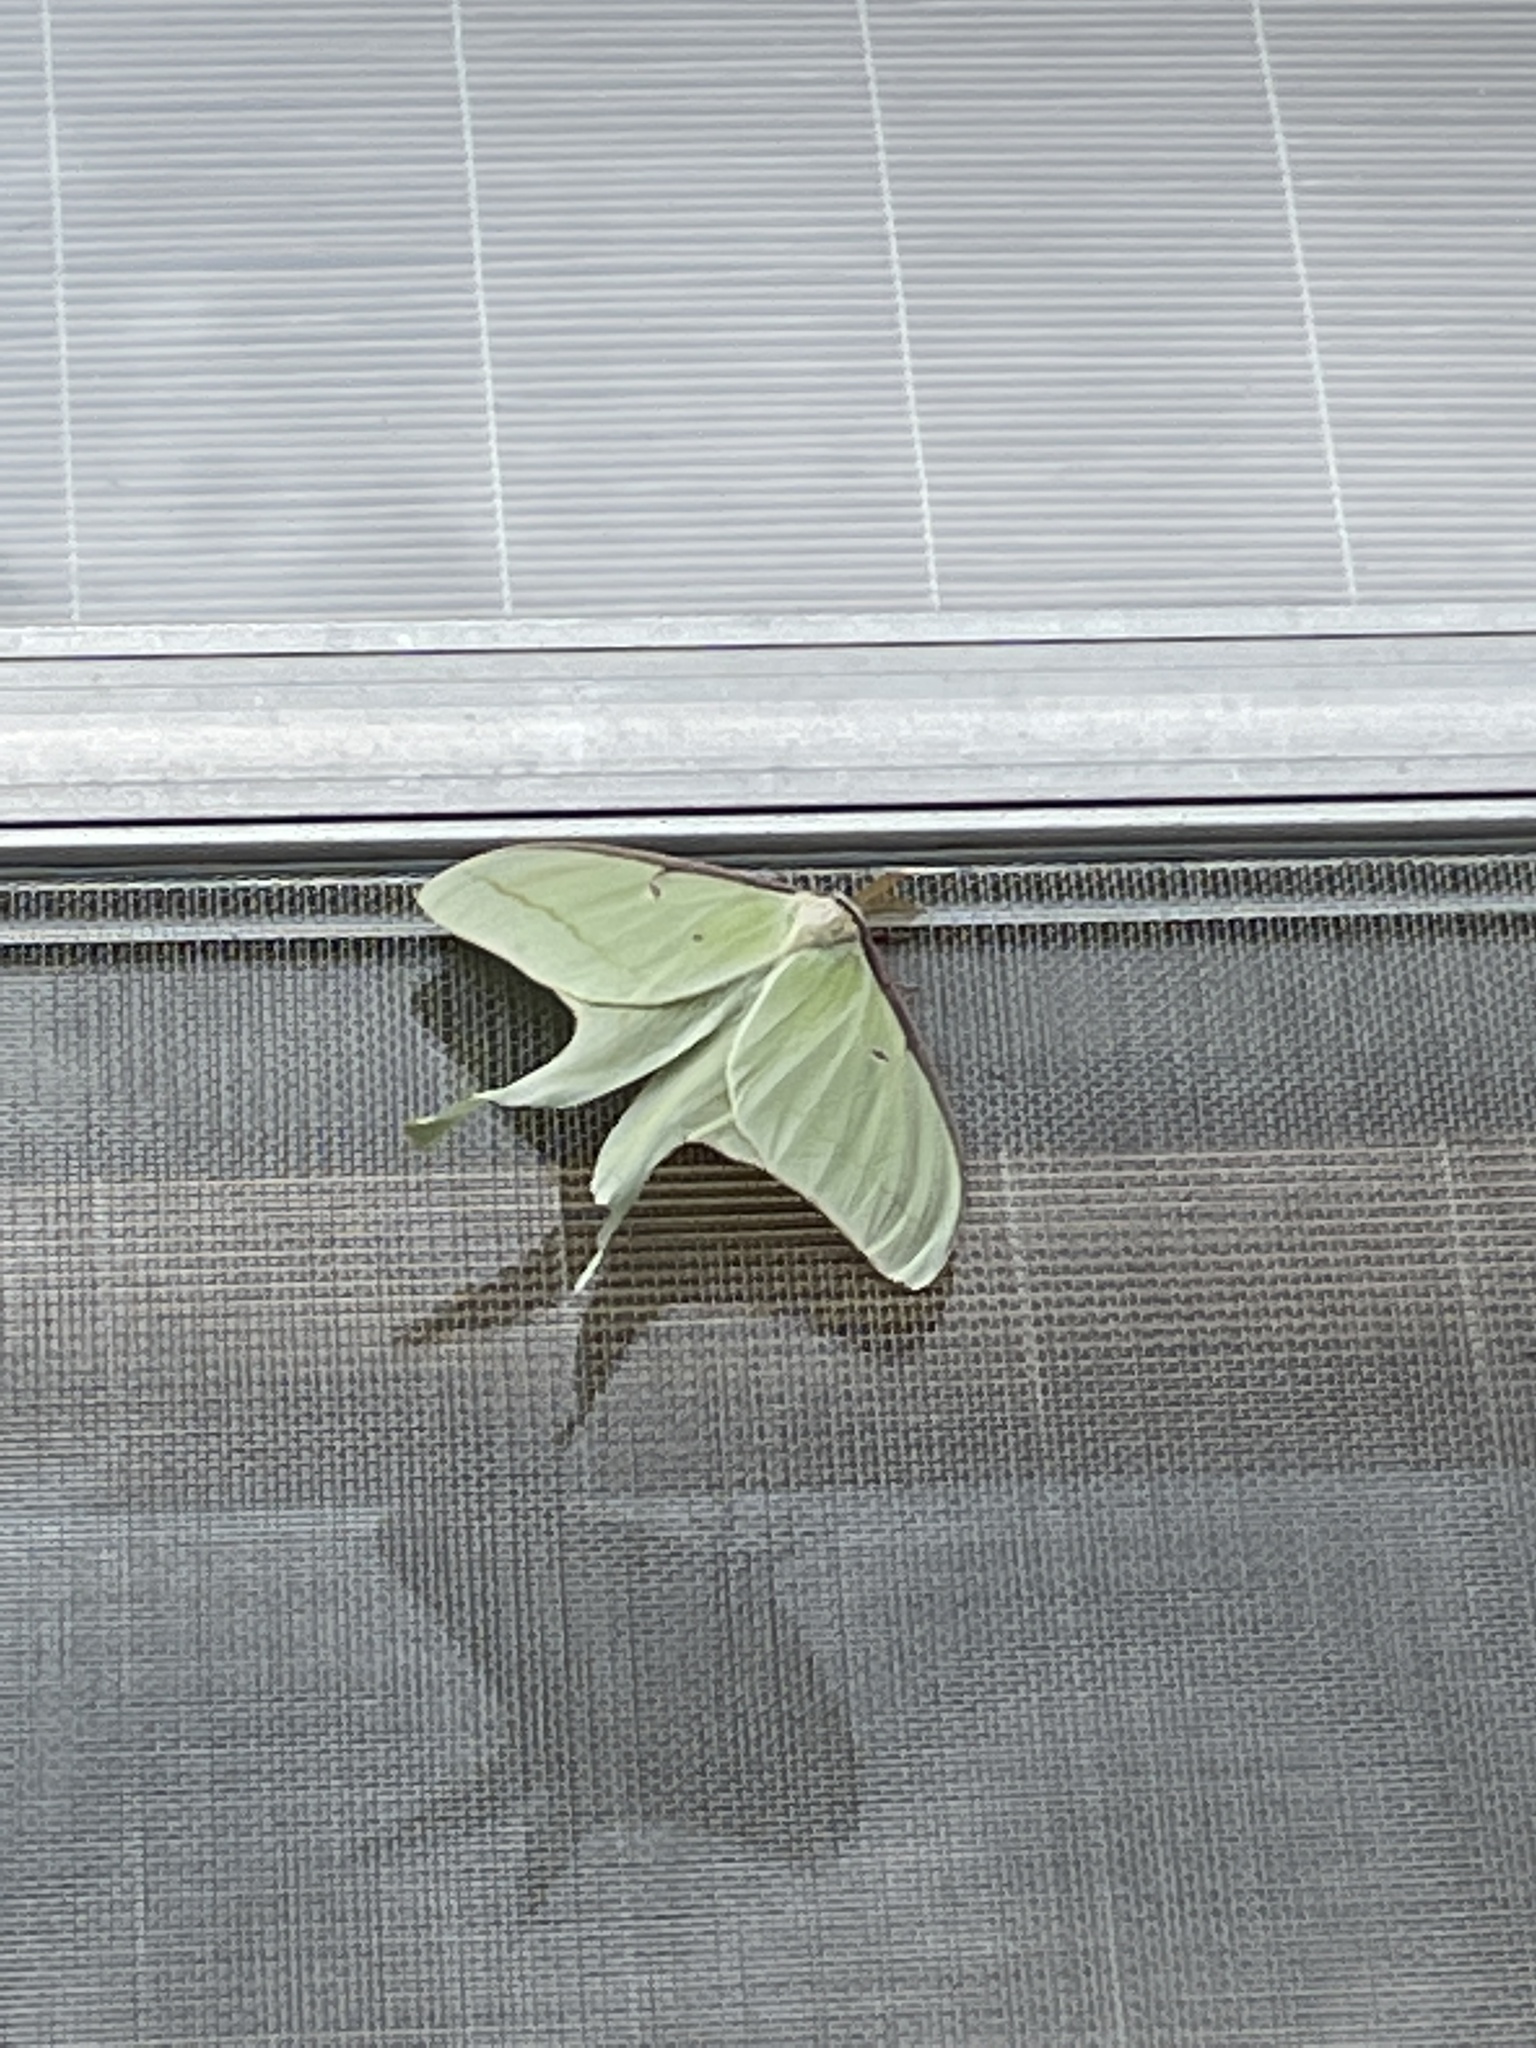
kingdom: Animalia
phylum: Arthropoda
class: Insecta
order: Lepidoptera
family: Saturniidae
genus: Actias
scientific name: Actias luna
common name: Luna moth
